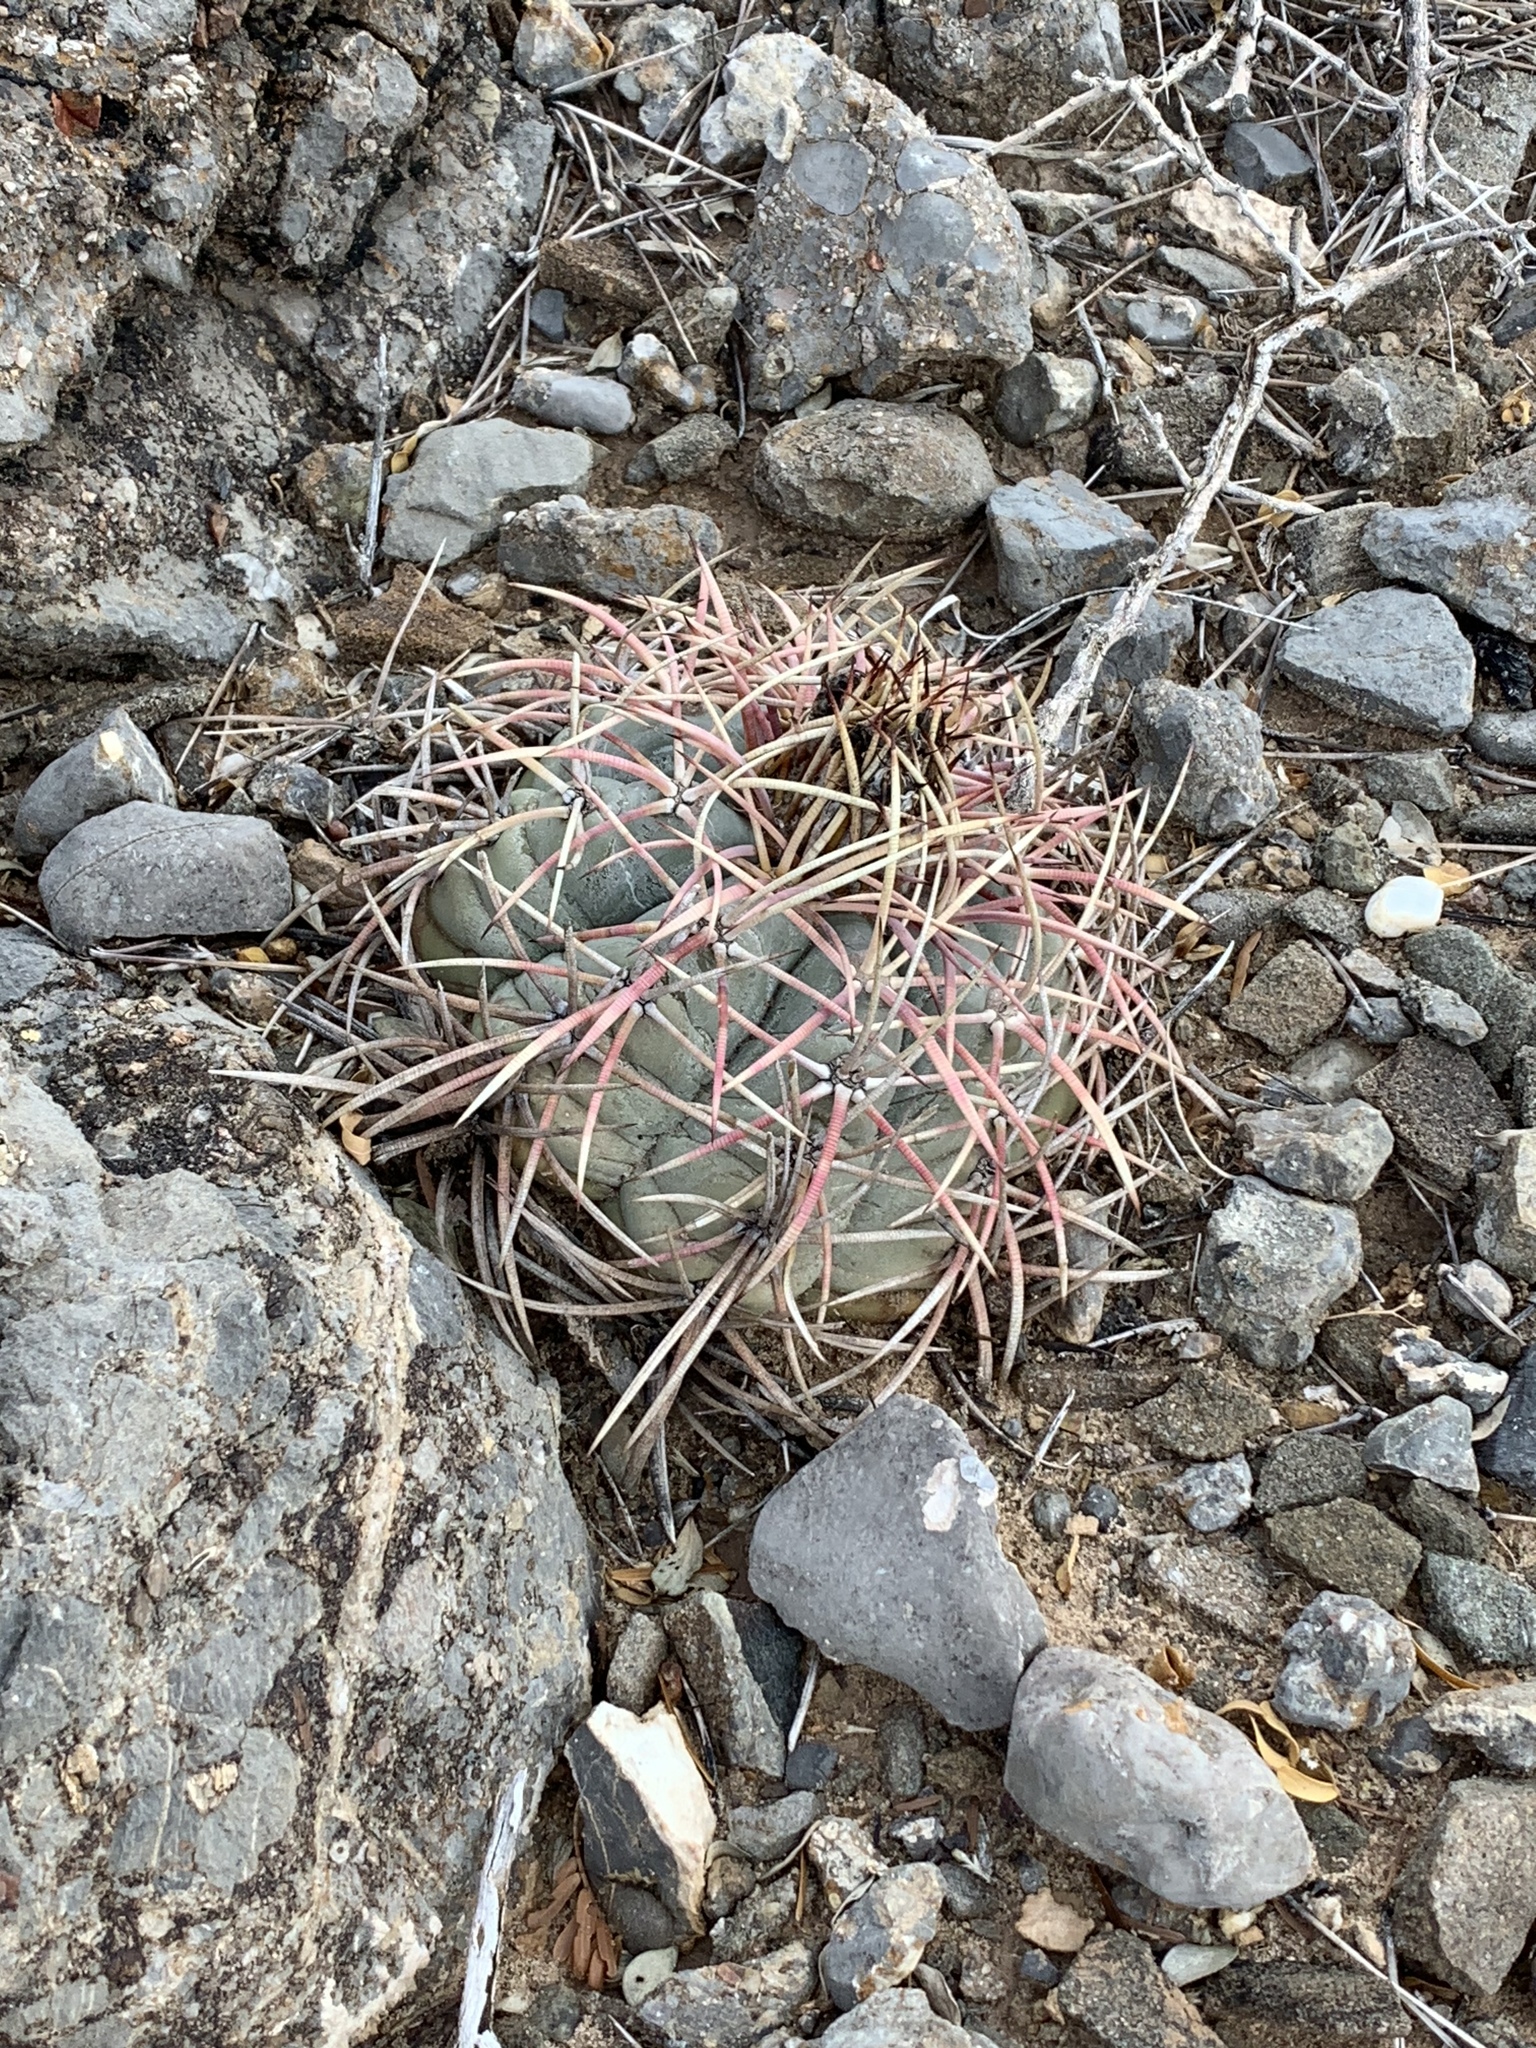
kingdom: Plantae
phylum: Tracheophyta
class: Magnoliopsida
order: Caryophyllales
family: Cactaceae
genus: Echinocactus
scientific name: Echinocactus horizonthalonius
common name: Devilshead
